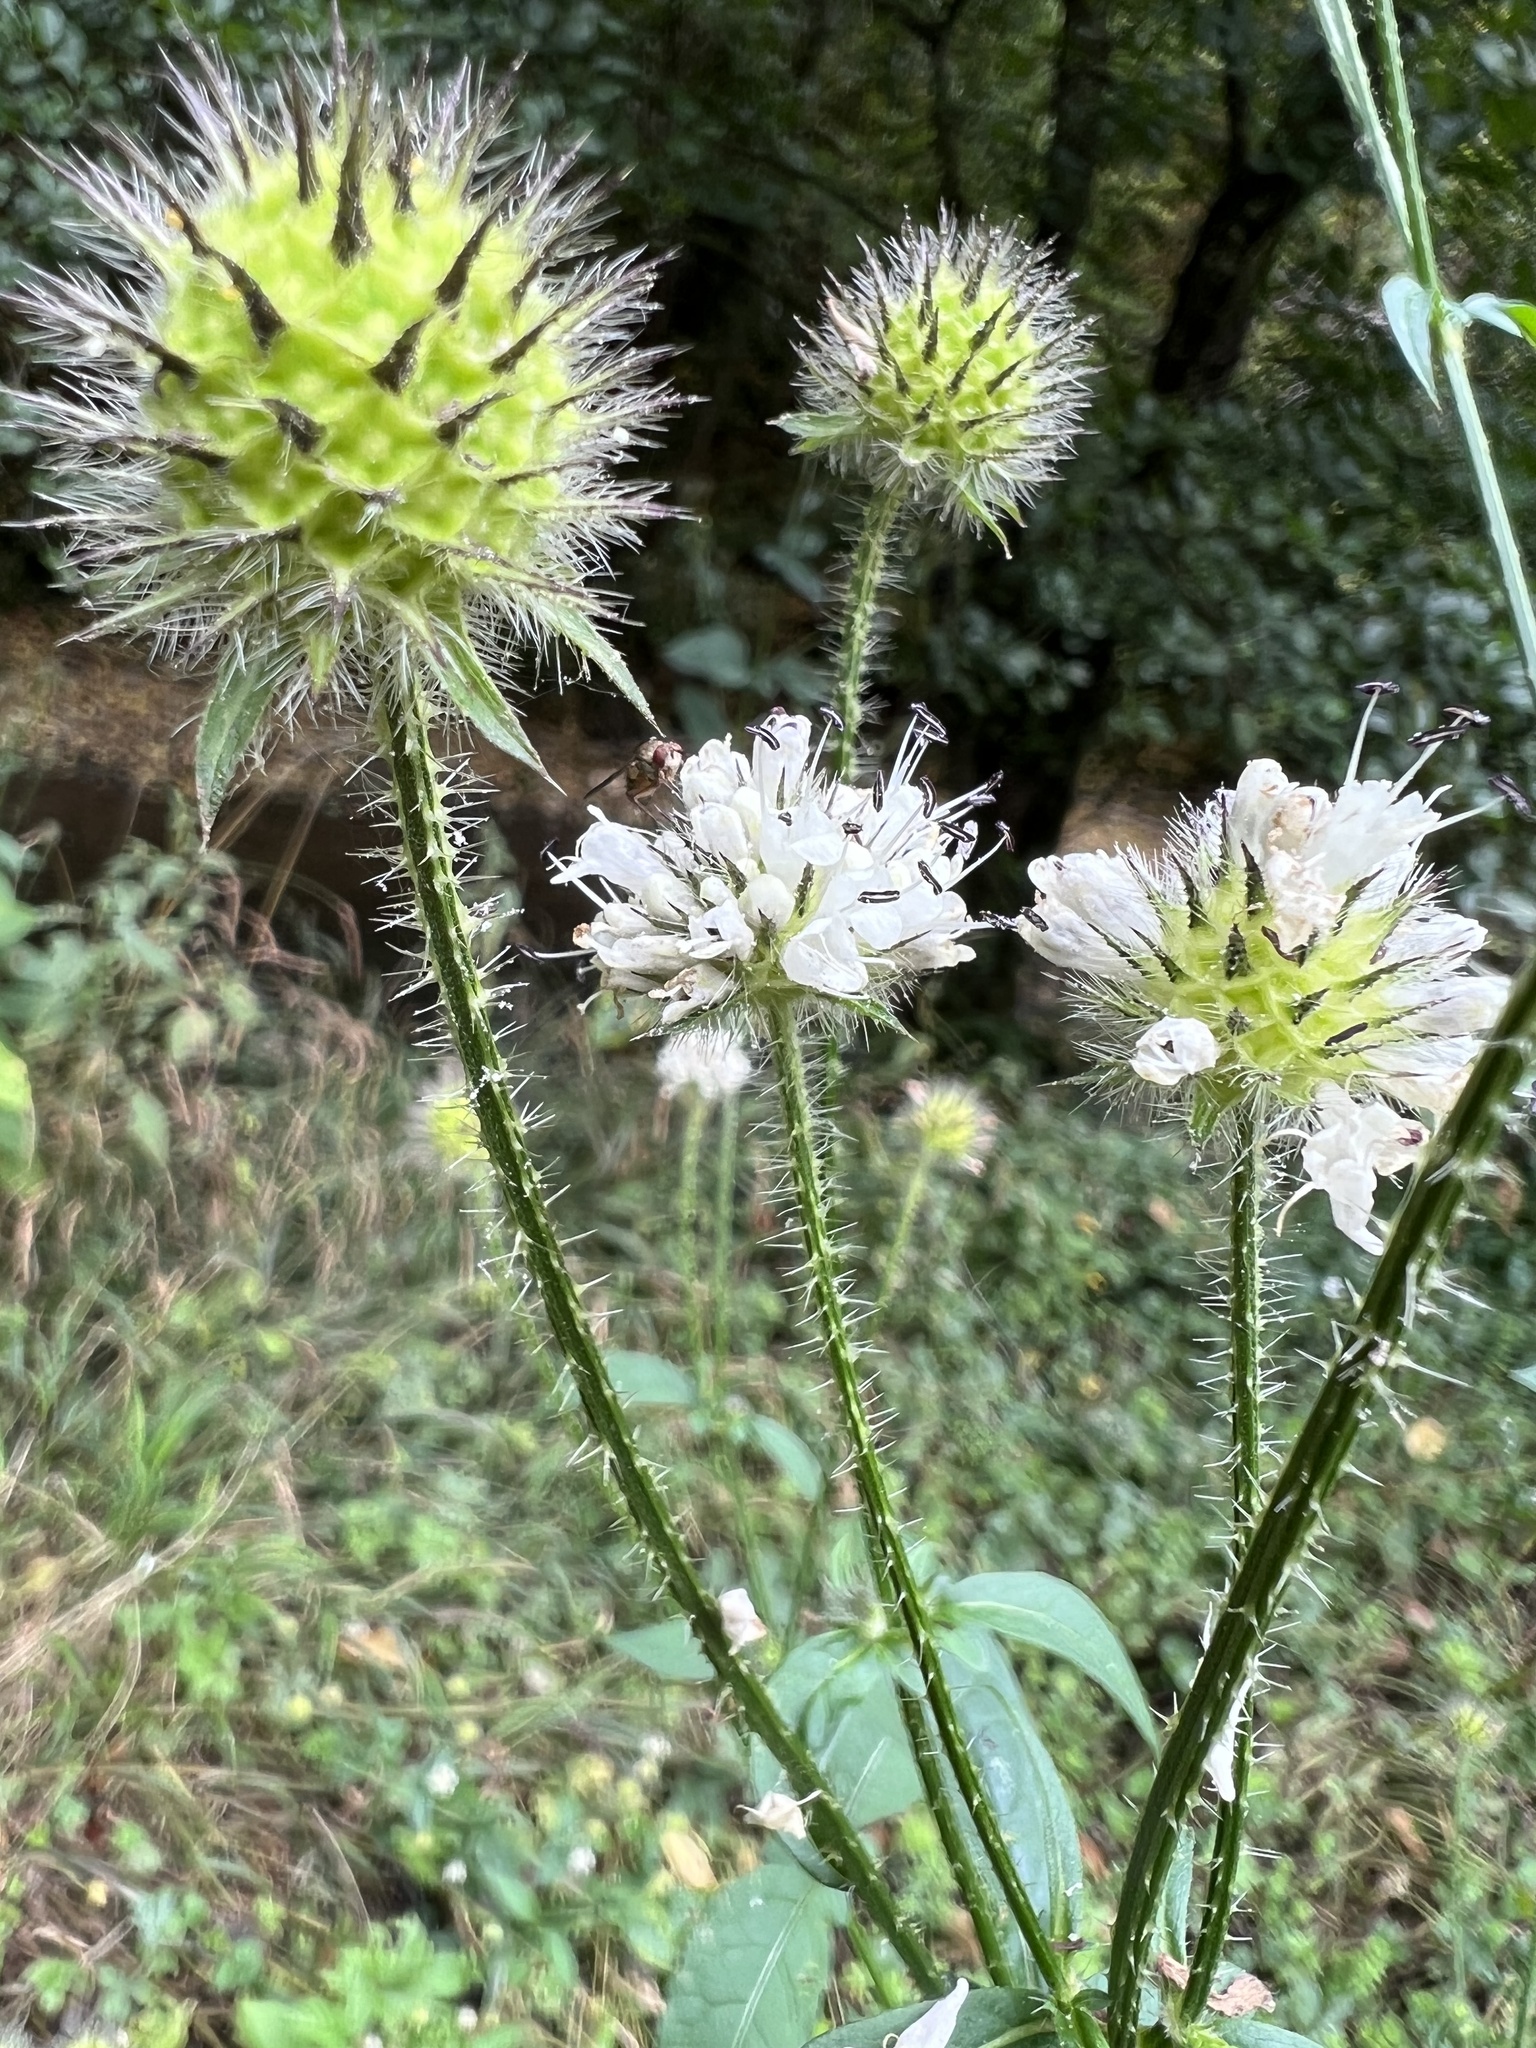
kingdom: Plantae
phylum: Tracheophyta
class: Magnoliopsida
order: Dipsacales
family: Caprifoliaceae
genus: Dipsacus
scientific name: Dipsacus pilosus
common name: Small teasel
